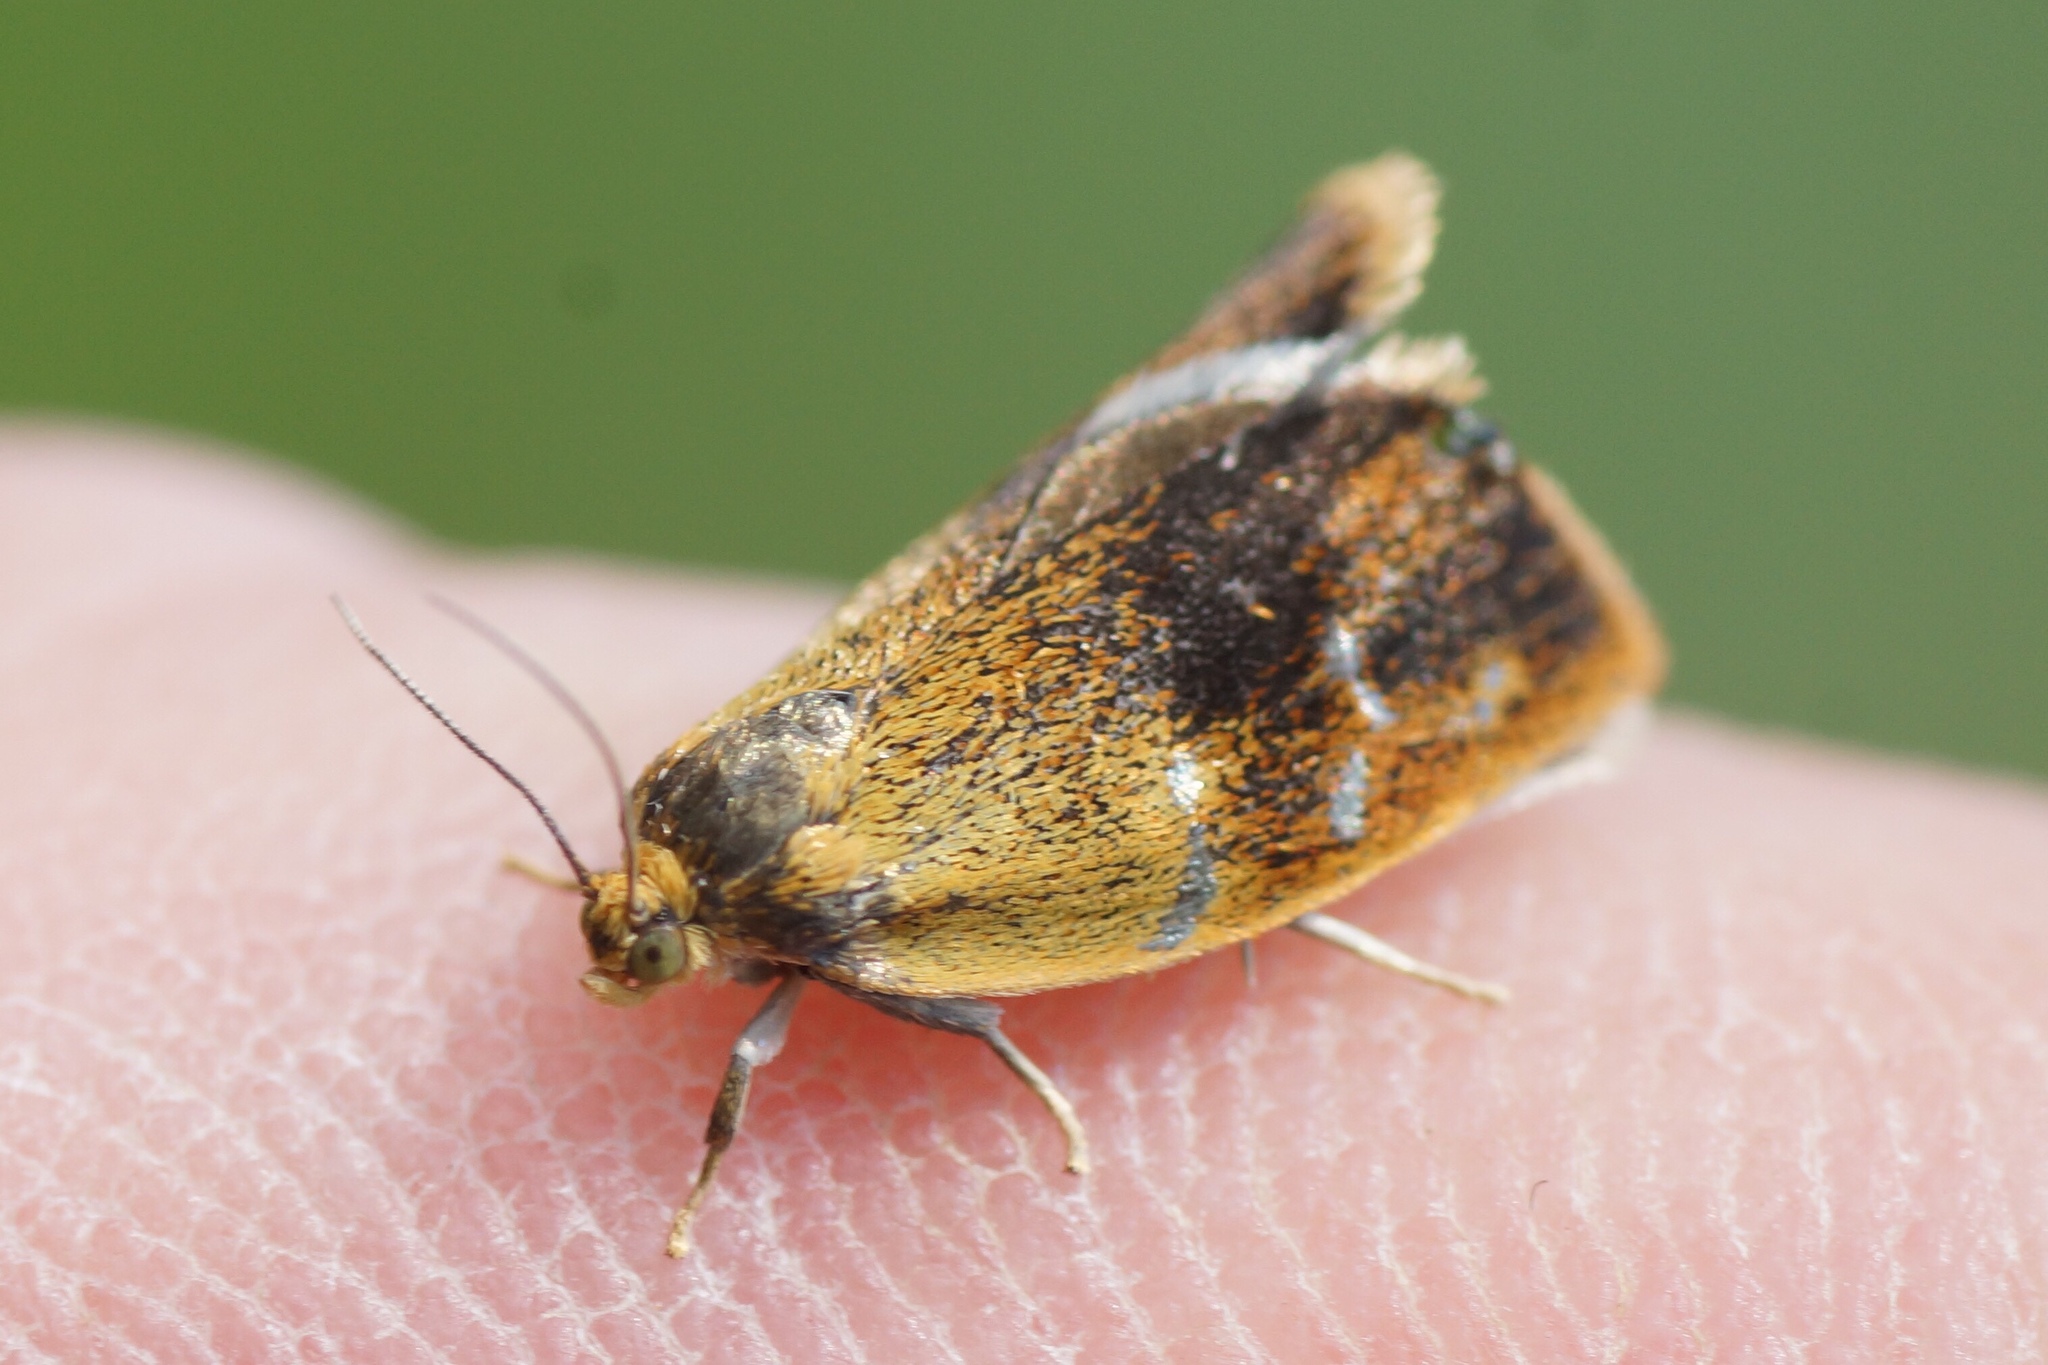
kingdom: Animalia
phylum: Arthropoda
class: Insecta
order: Lepidoptera
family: Tortricidae
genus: Ptycholoma
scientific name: Ptycholoma lecheana
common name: Leches twist moth
